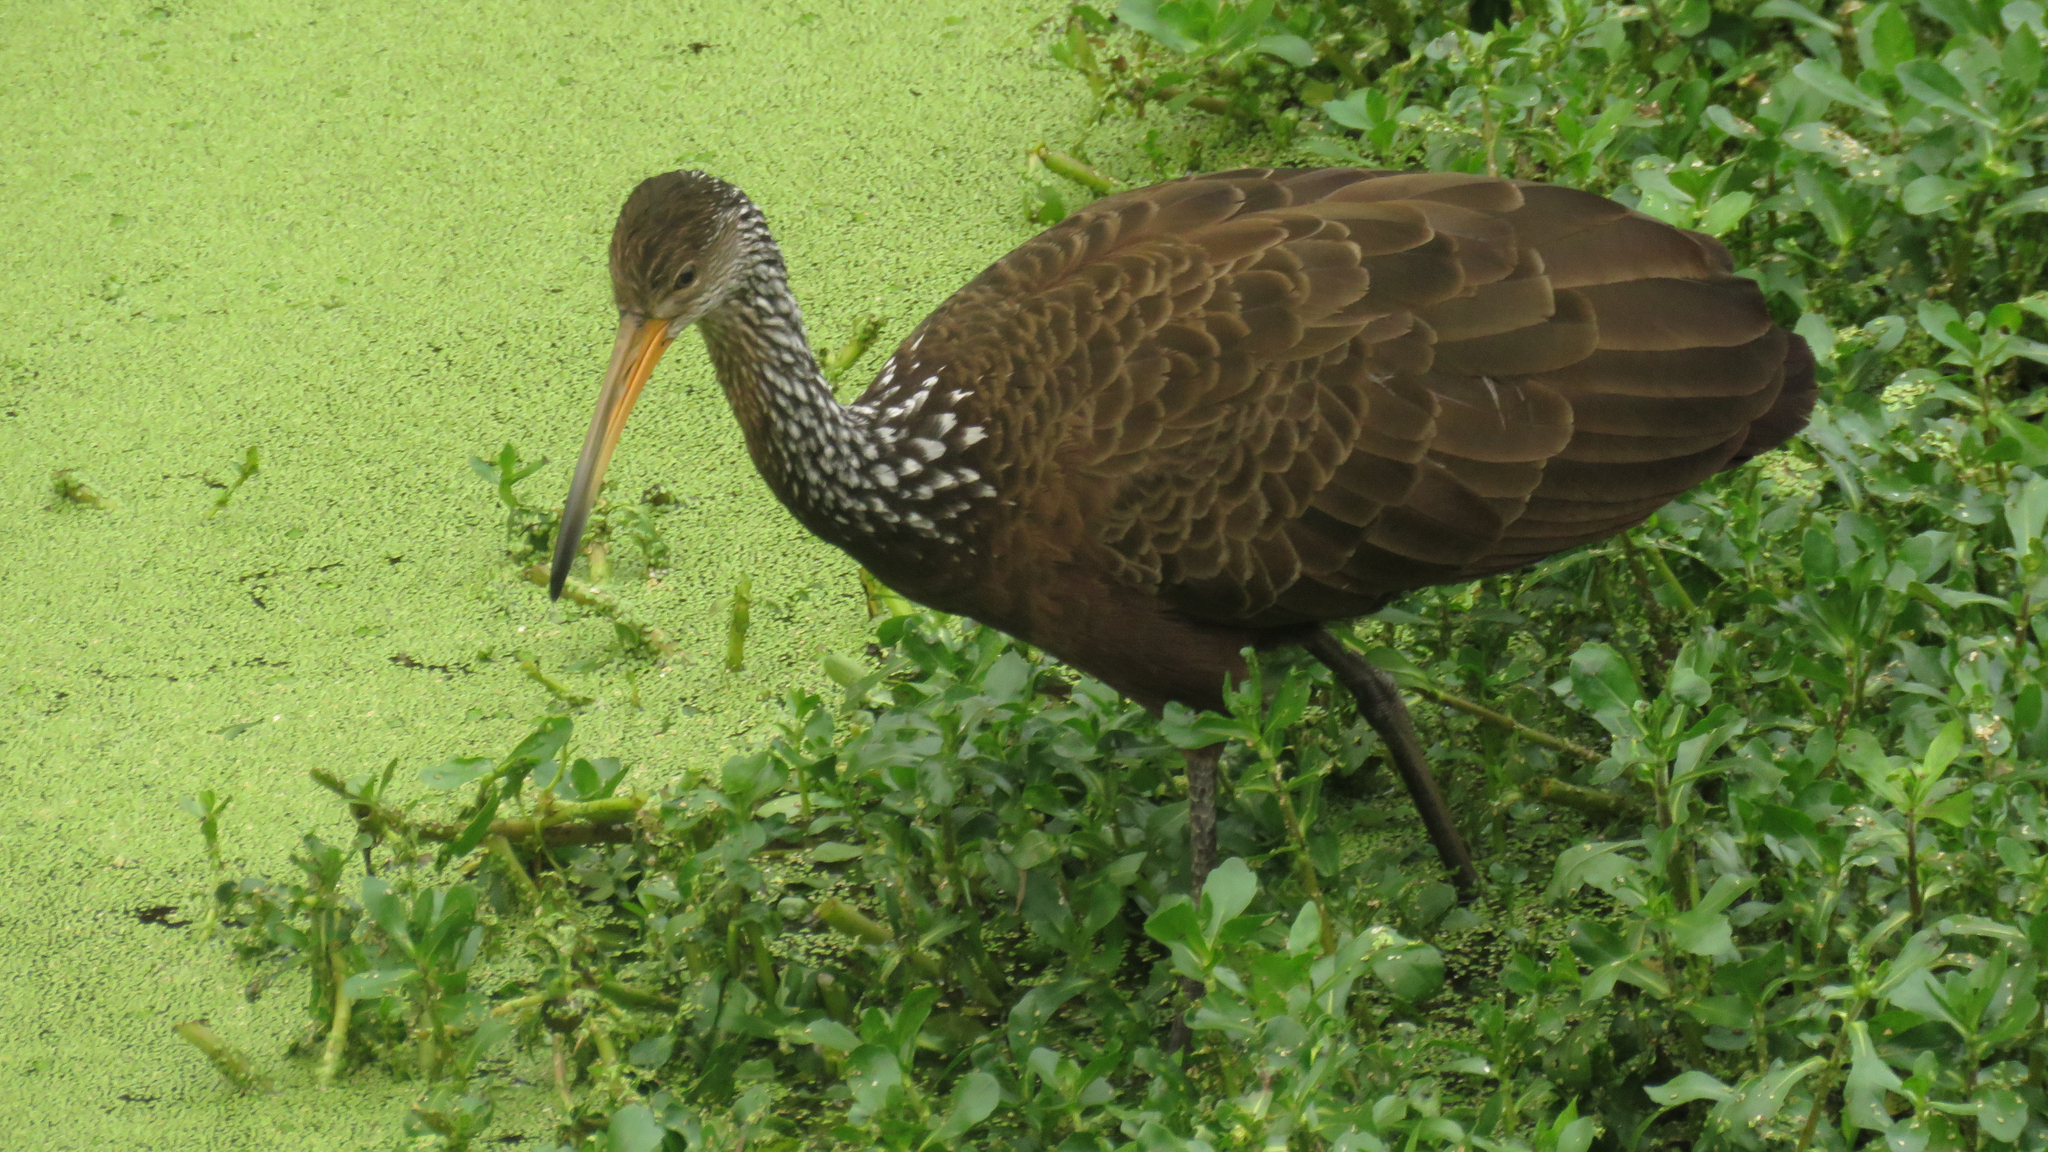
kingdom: Animalia
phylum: Chordata
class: Aves
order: Gruiformes
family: Aramidae
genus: Aramus
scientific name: Aramus guarauna
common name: Limpkin
